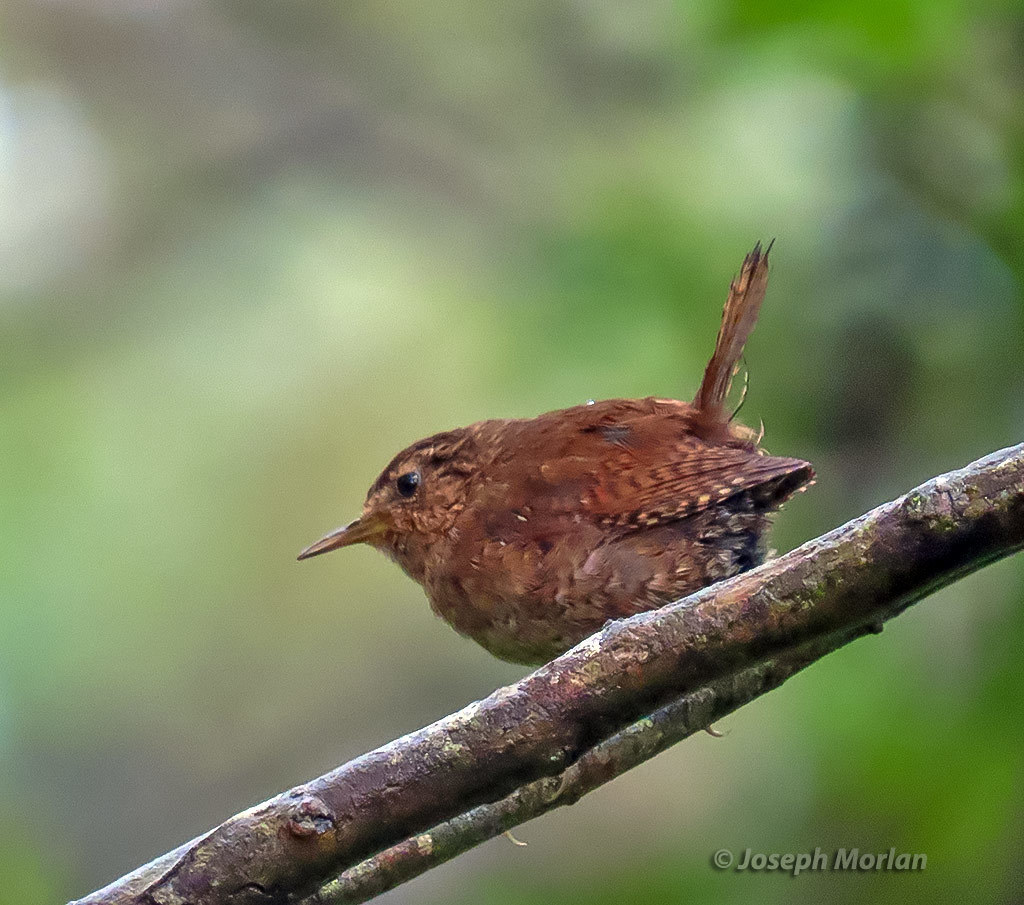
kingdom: Animalia
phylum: Chordata
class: Aves
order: Passeriformes
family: Troglodytidae
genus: Troglodytes
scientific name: Troglodytes pacificus
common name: Pacific wren
